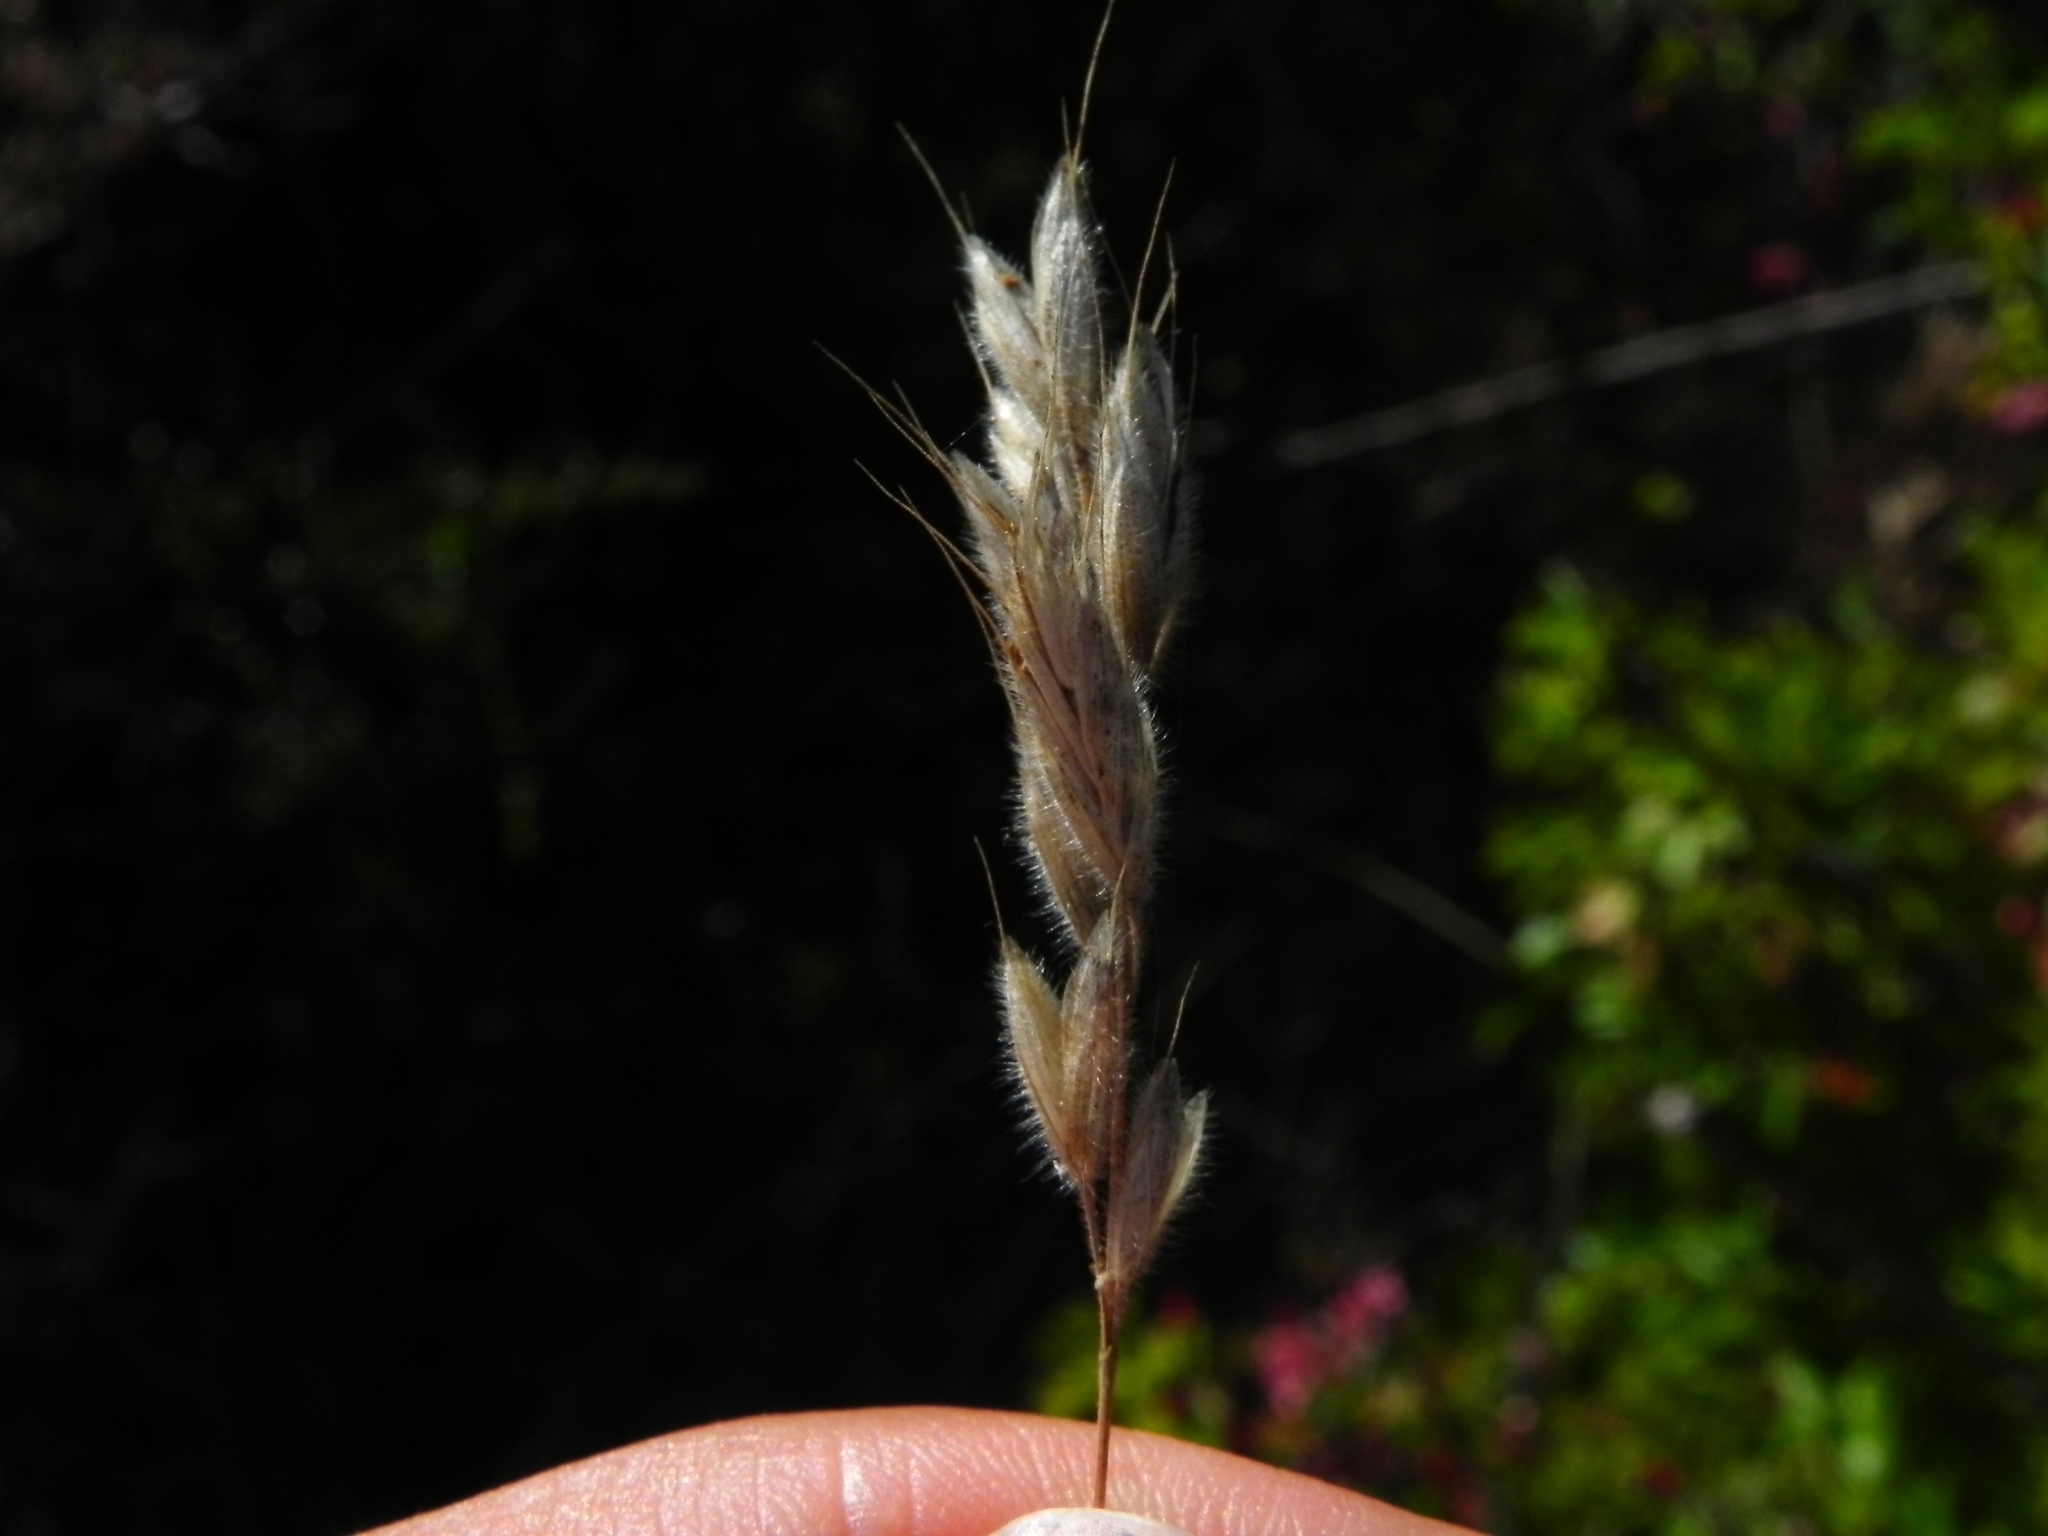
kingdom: Plantae
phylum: Tracheophyta
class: Liliopsida
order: Poales
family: Poaceae
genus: Bromus
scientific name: Bromus hordeaceus
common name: Soft brome
